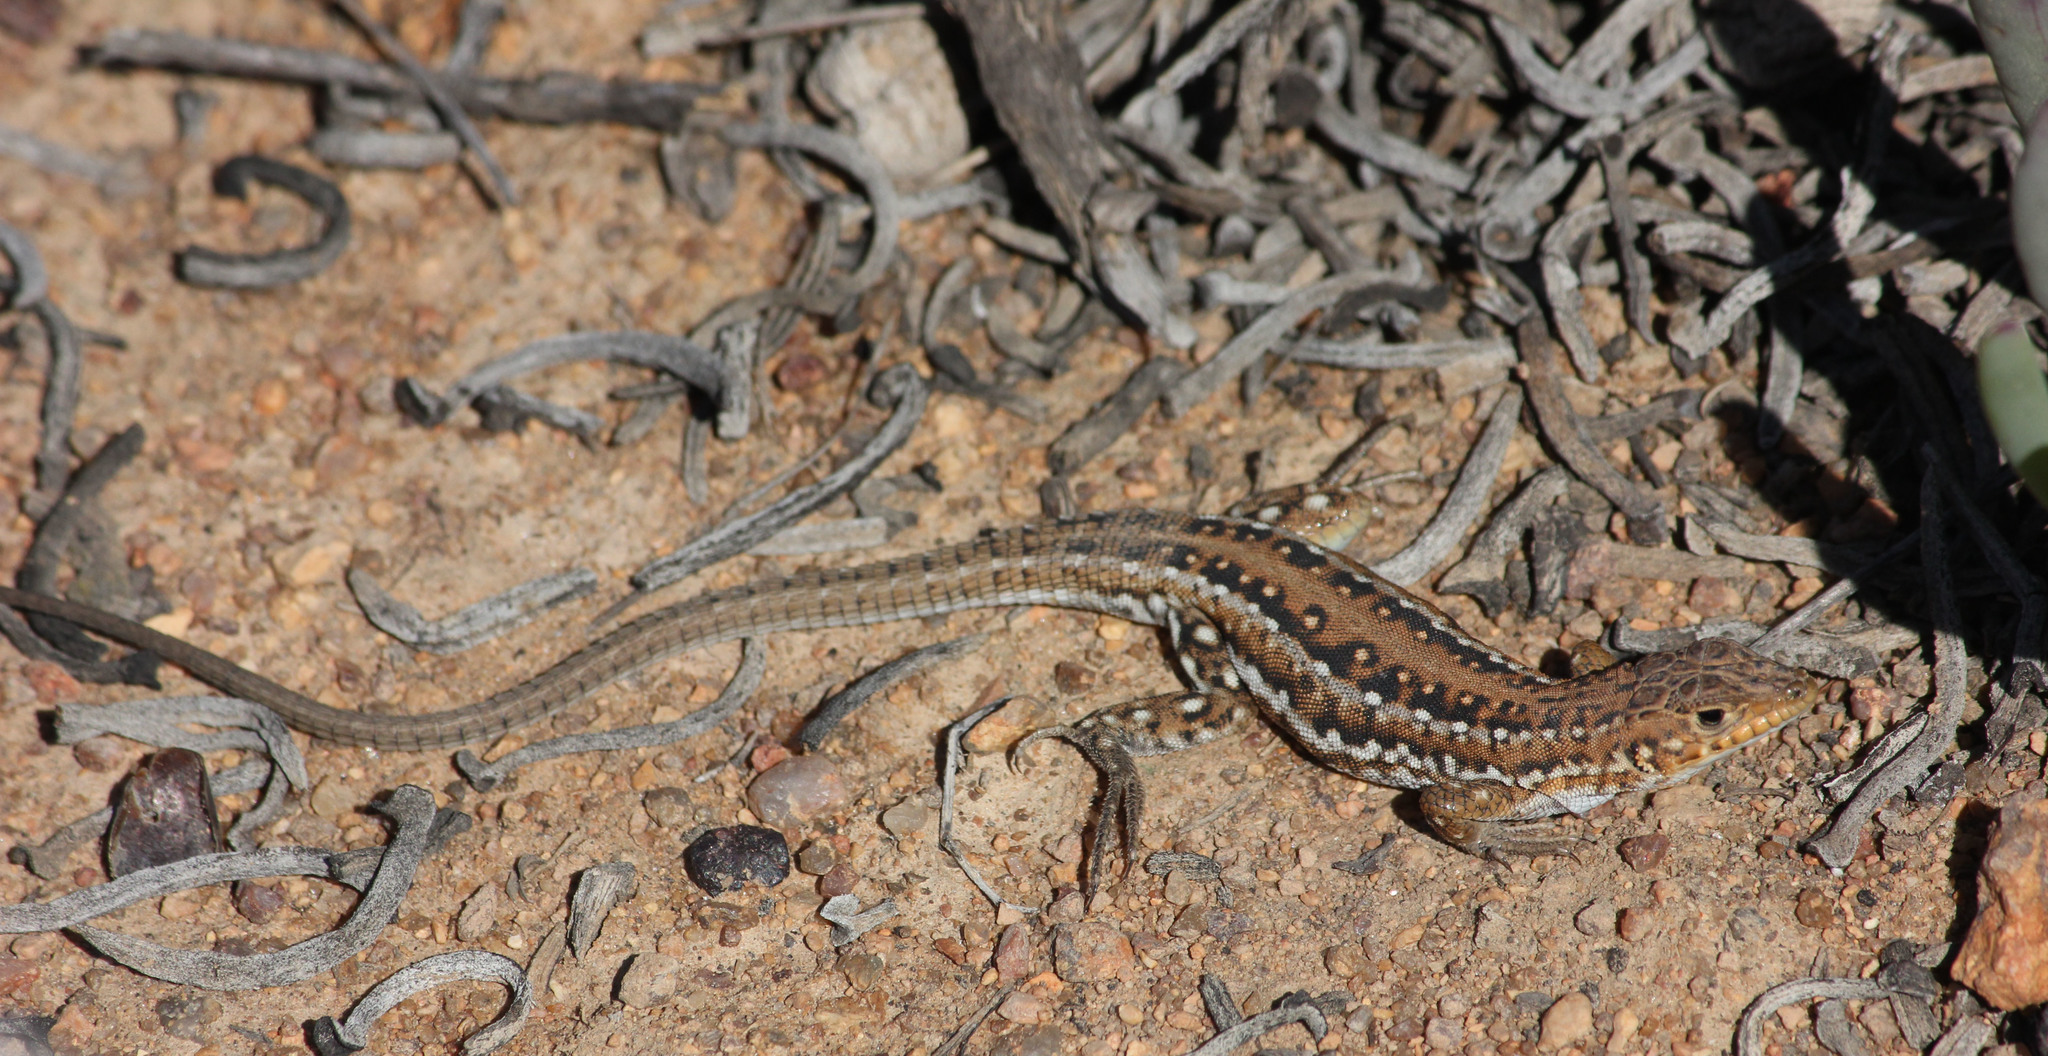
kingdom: Animalia
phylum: Chordata
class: Squamata
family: Lacertidae
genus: Meroles
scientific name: Meroles knoxii
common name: Knox's desert lizard
